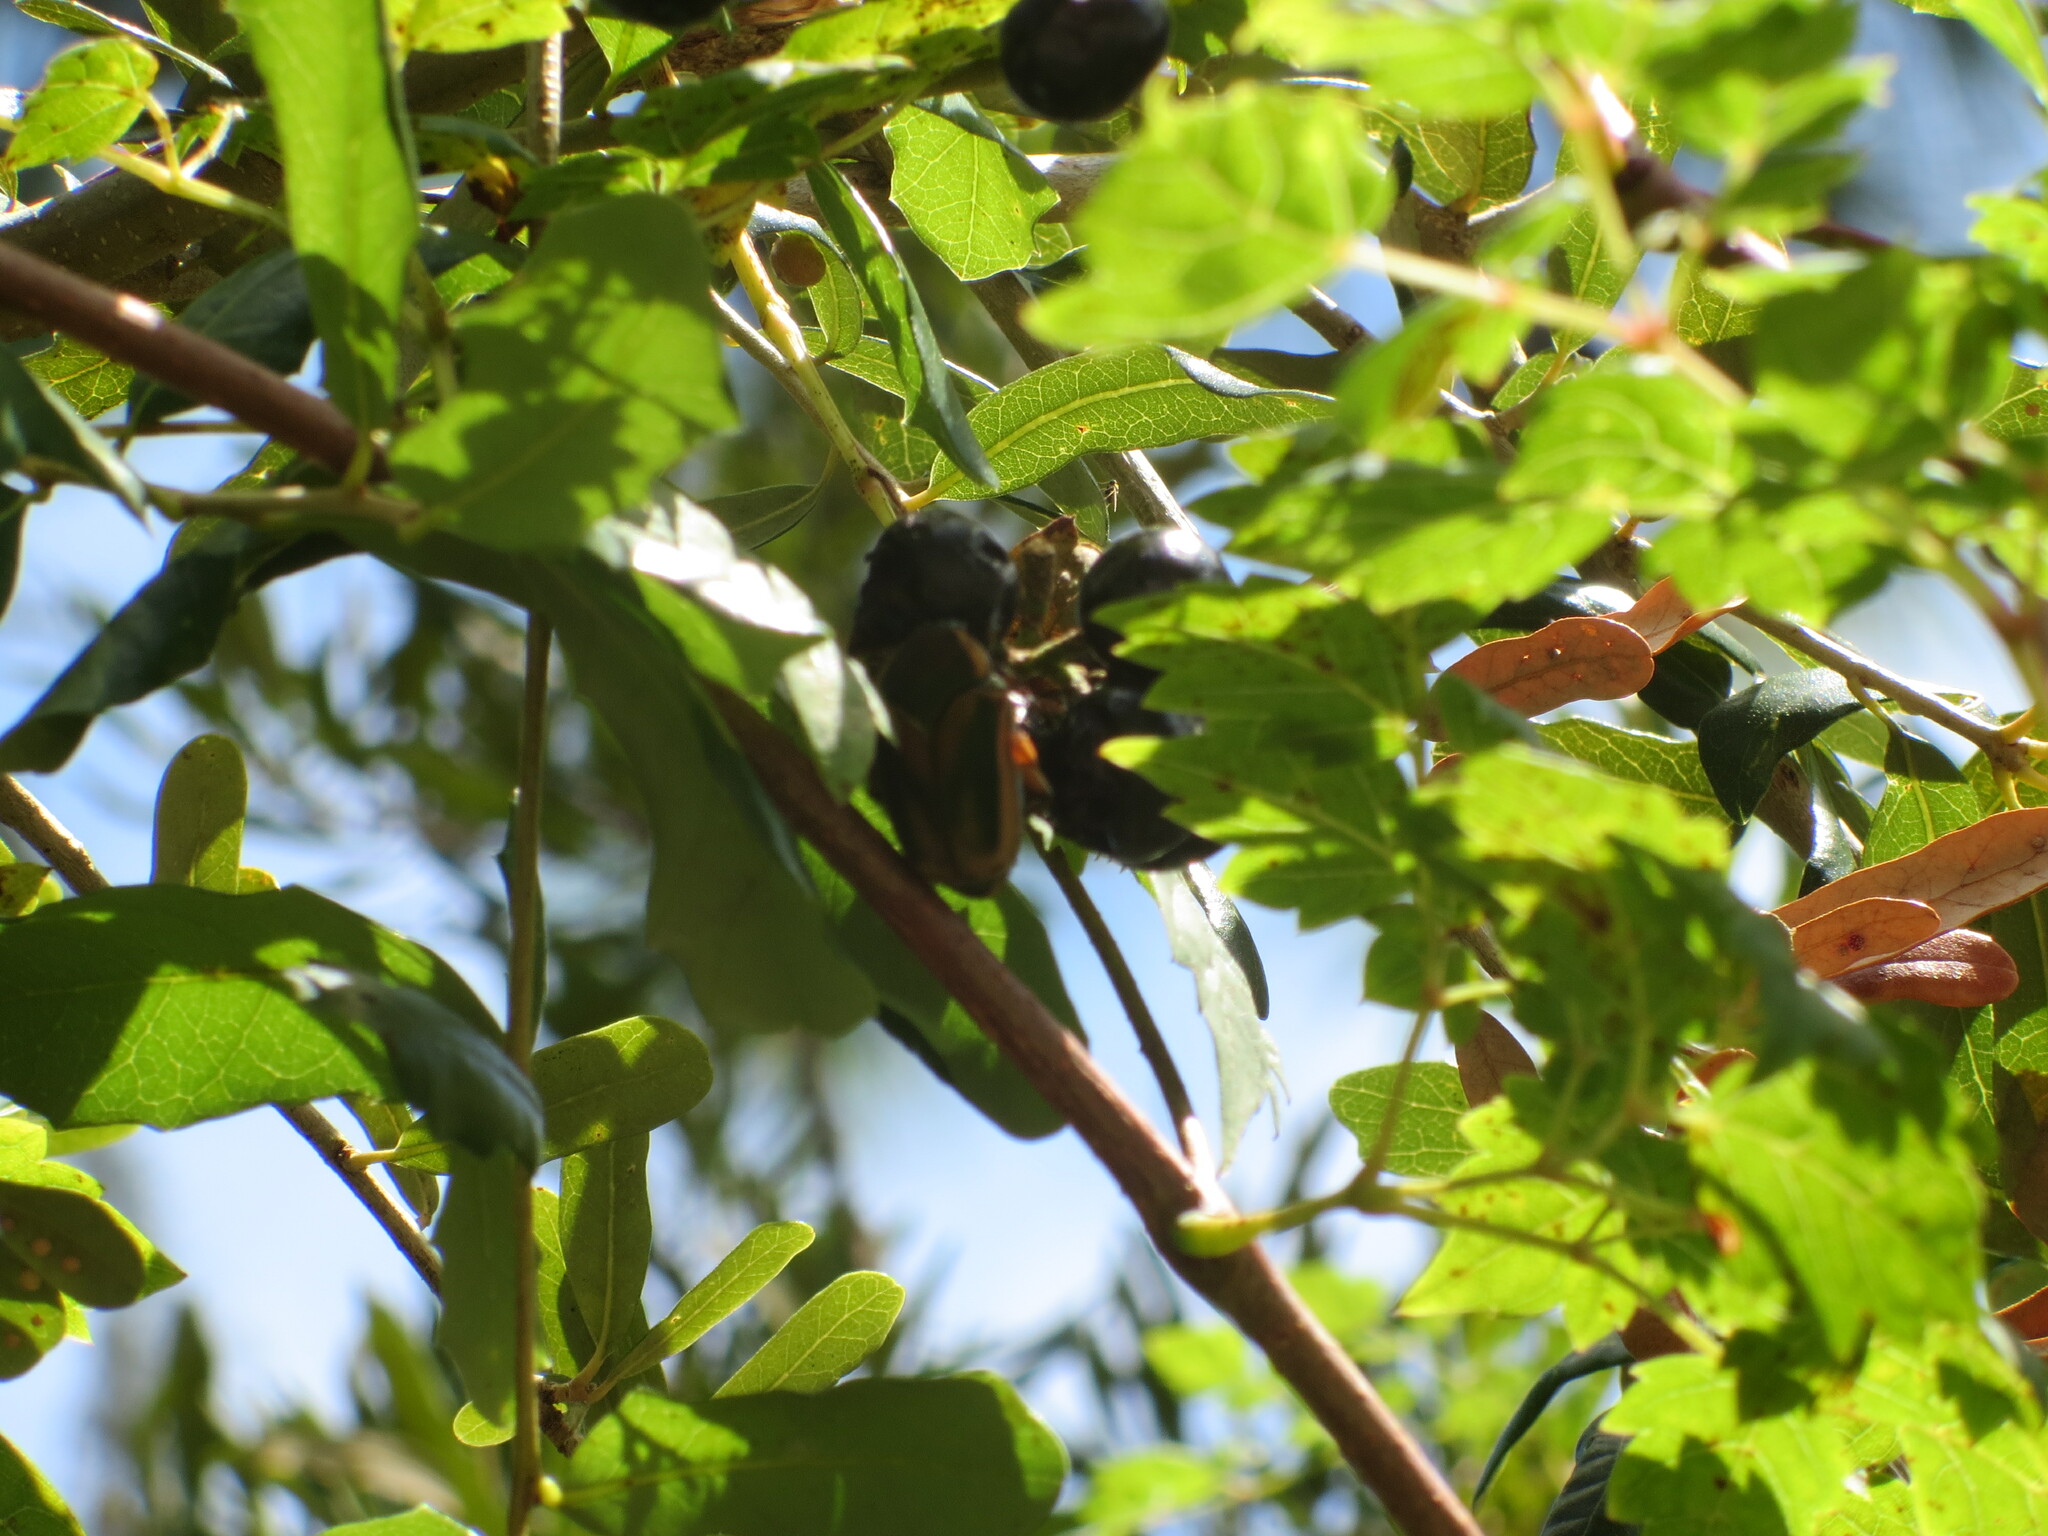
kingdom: Animalia
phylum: Arthropoda
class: Insecta
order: Coleoptera
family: Scarabaeidae
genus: Cotinis
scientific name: Cotinis nitida
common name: Common green june beetle
